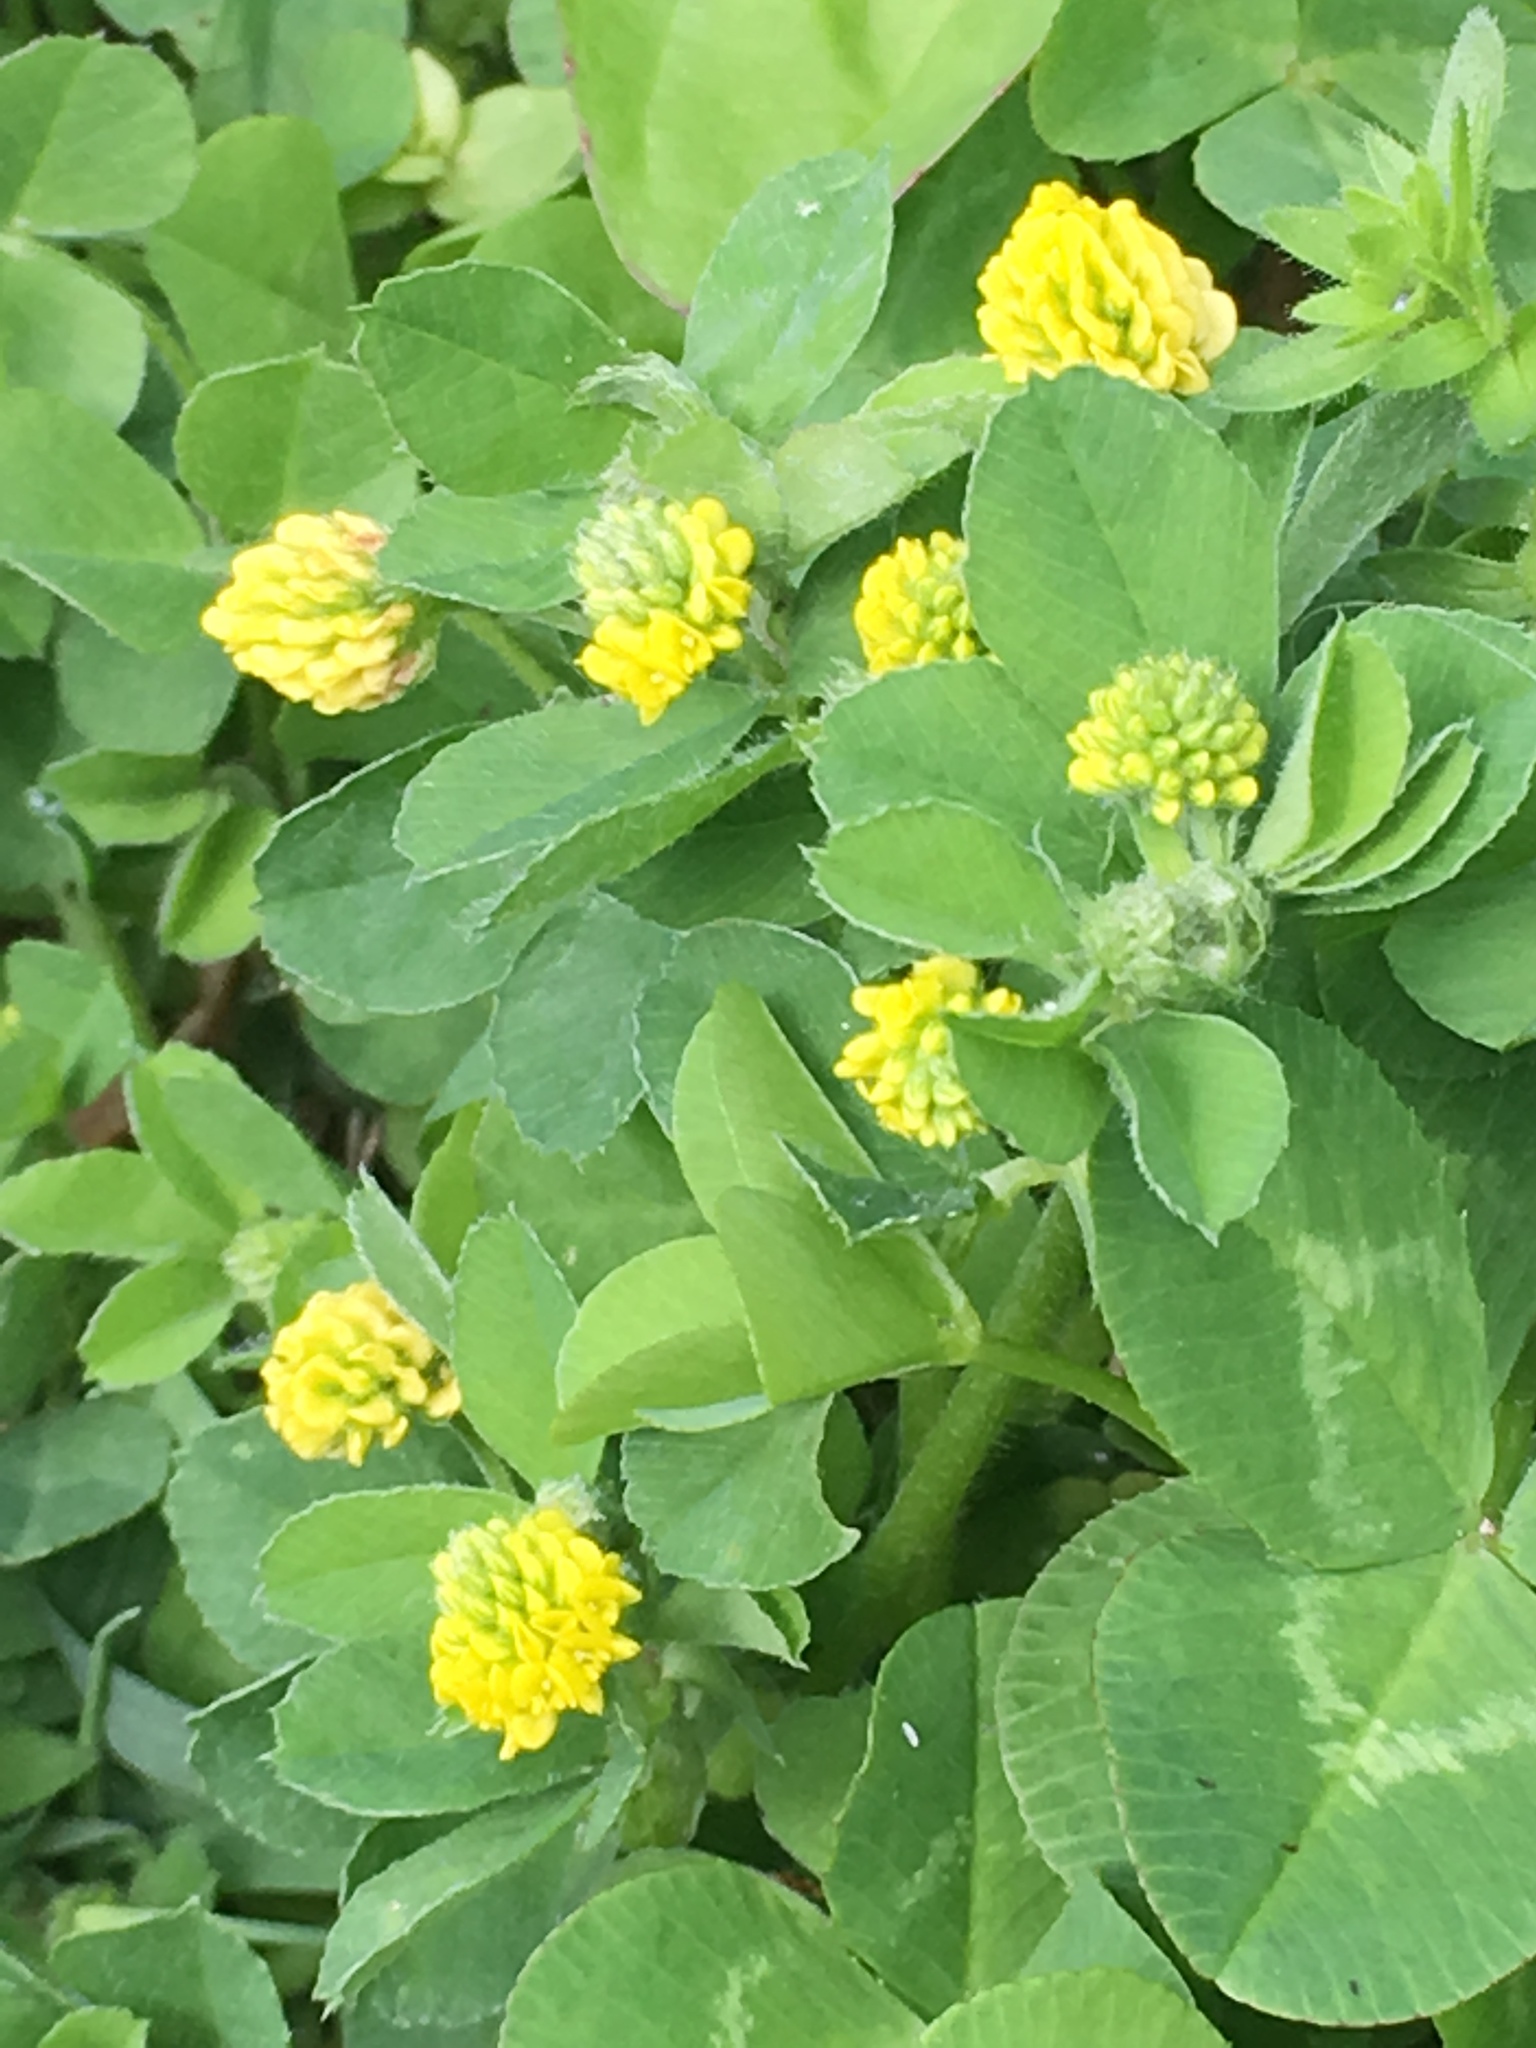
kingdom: Plantae
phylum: Tracheophyta
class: Magnoliopsida
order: Fabales
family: Fabaceae
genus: Medicago
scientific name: Medicago lupulina
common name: Black medick
